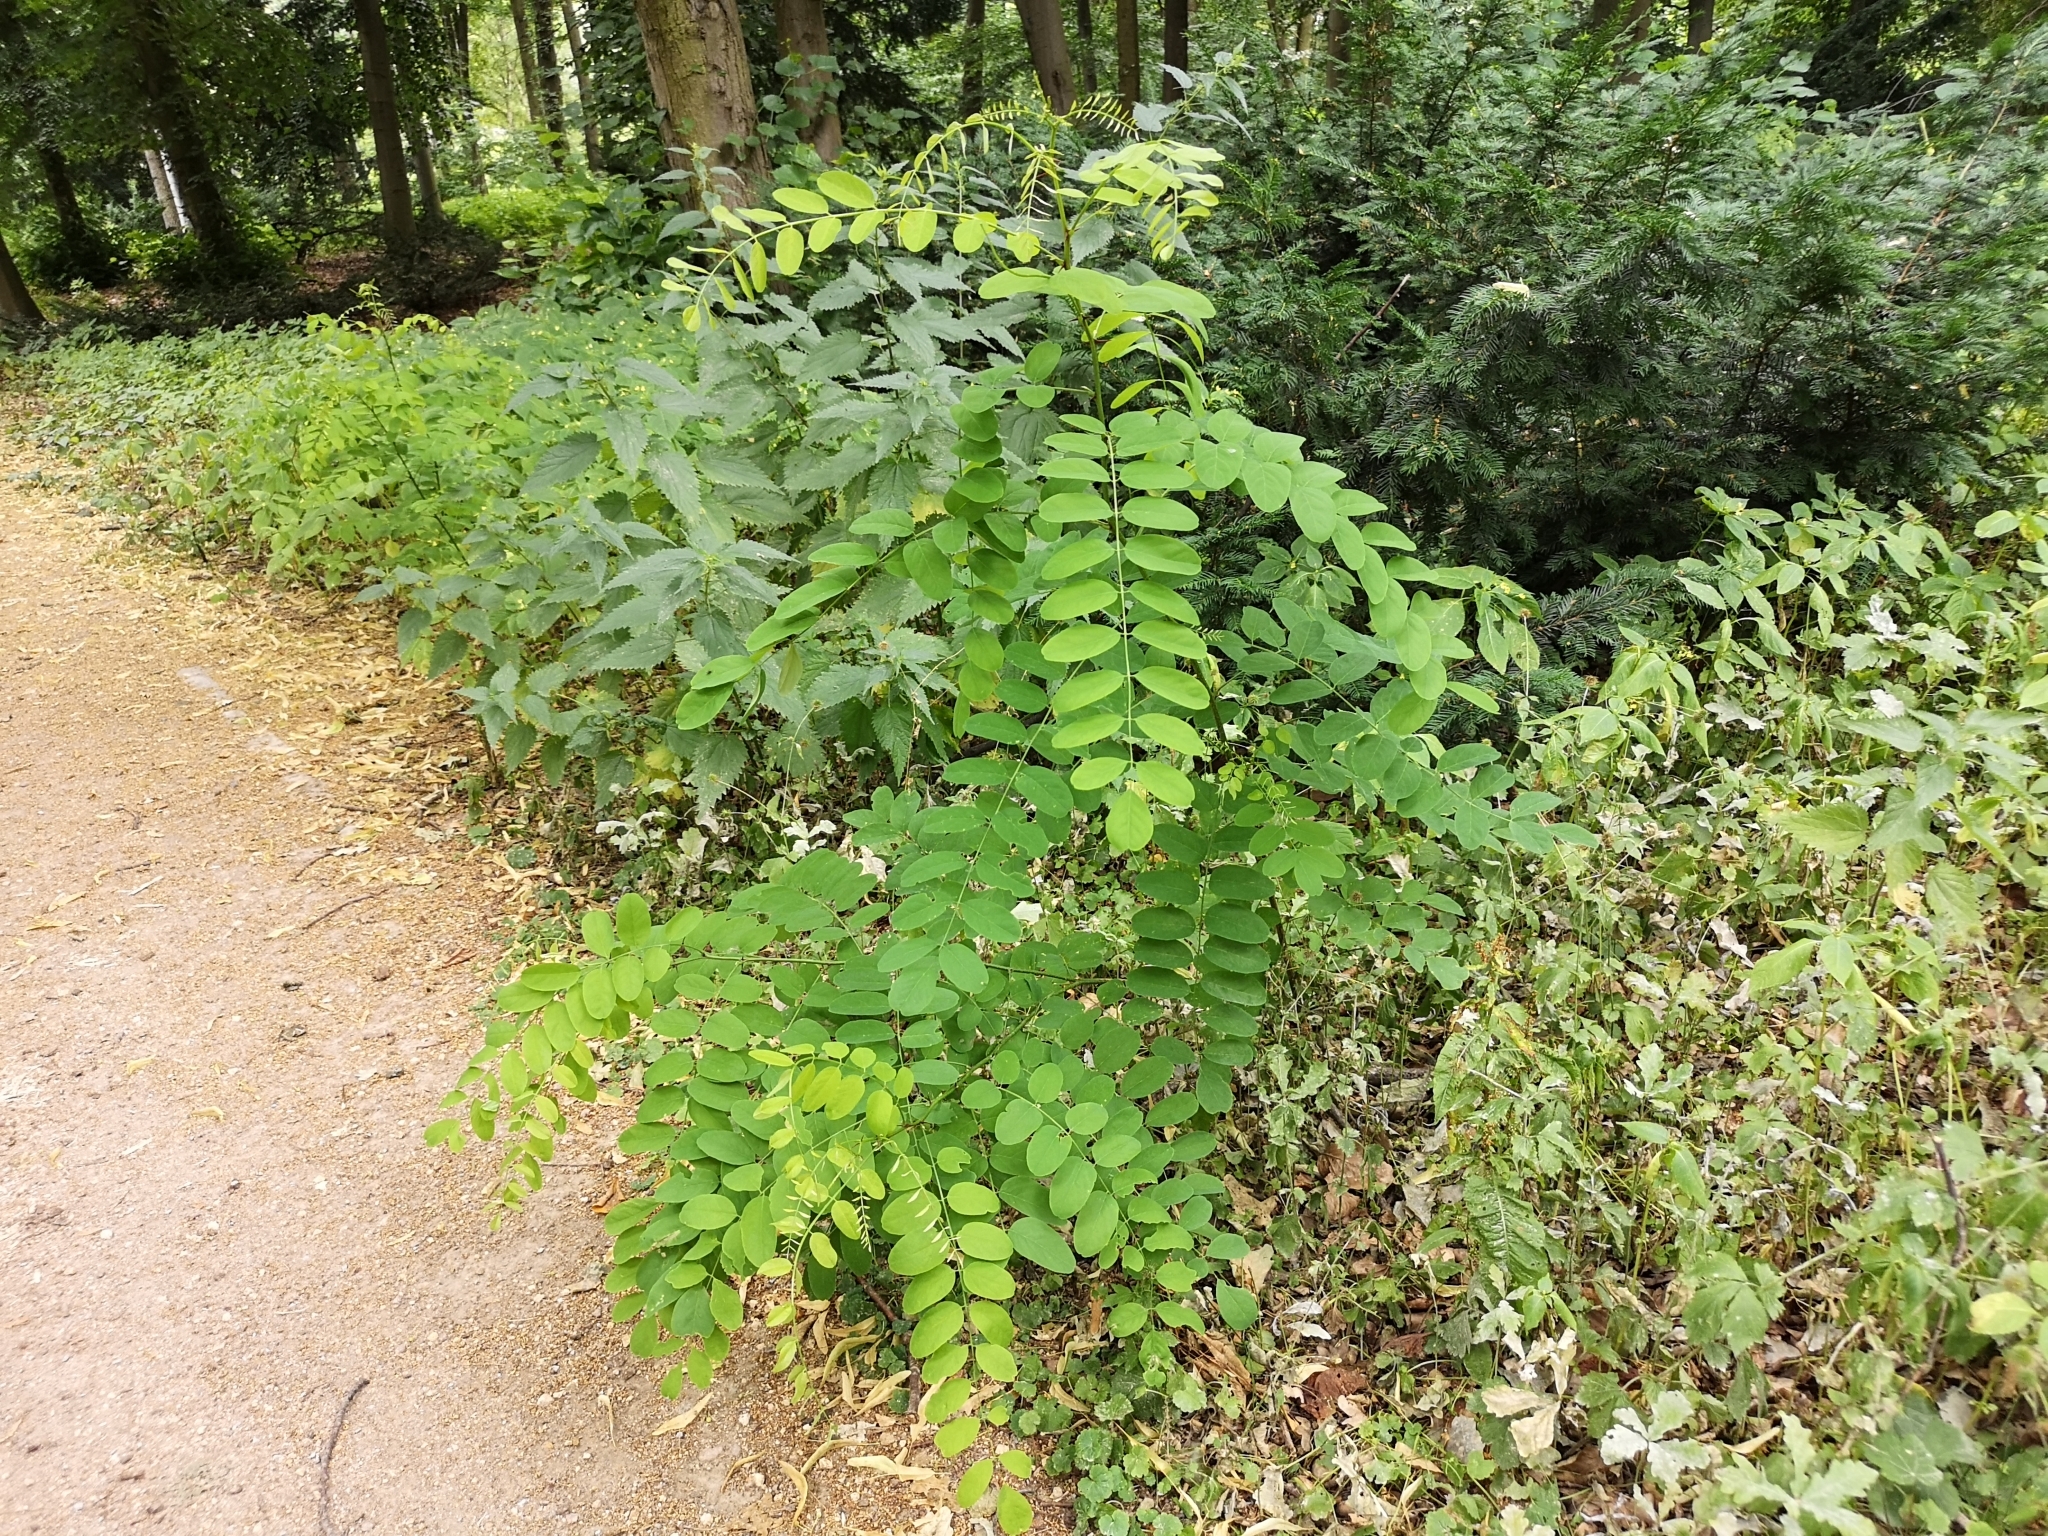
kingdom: Plantae
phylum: Tracheophyta
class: Magnoliopsida
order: Fabales
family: Fabaceae
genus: Robinia
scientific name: Robinia pseudoacacia
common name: Black locust
